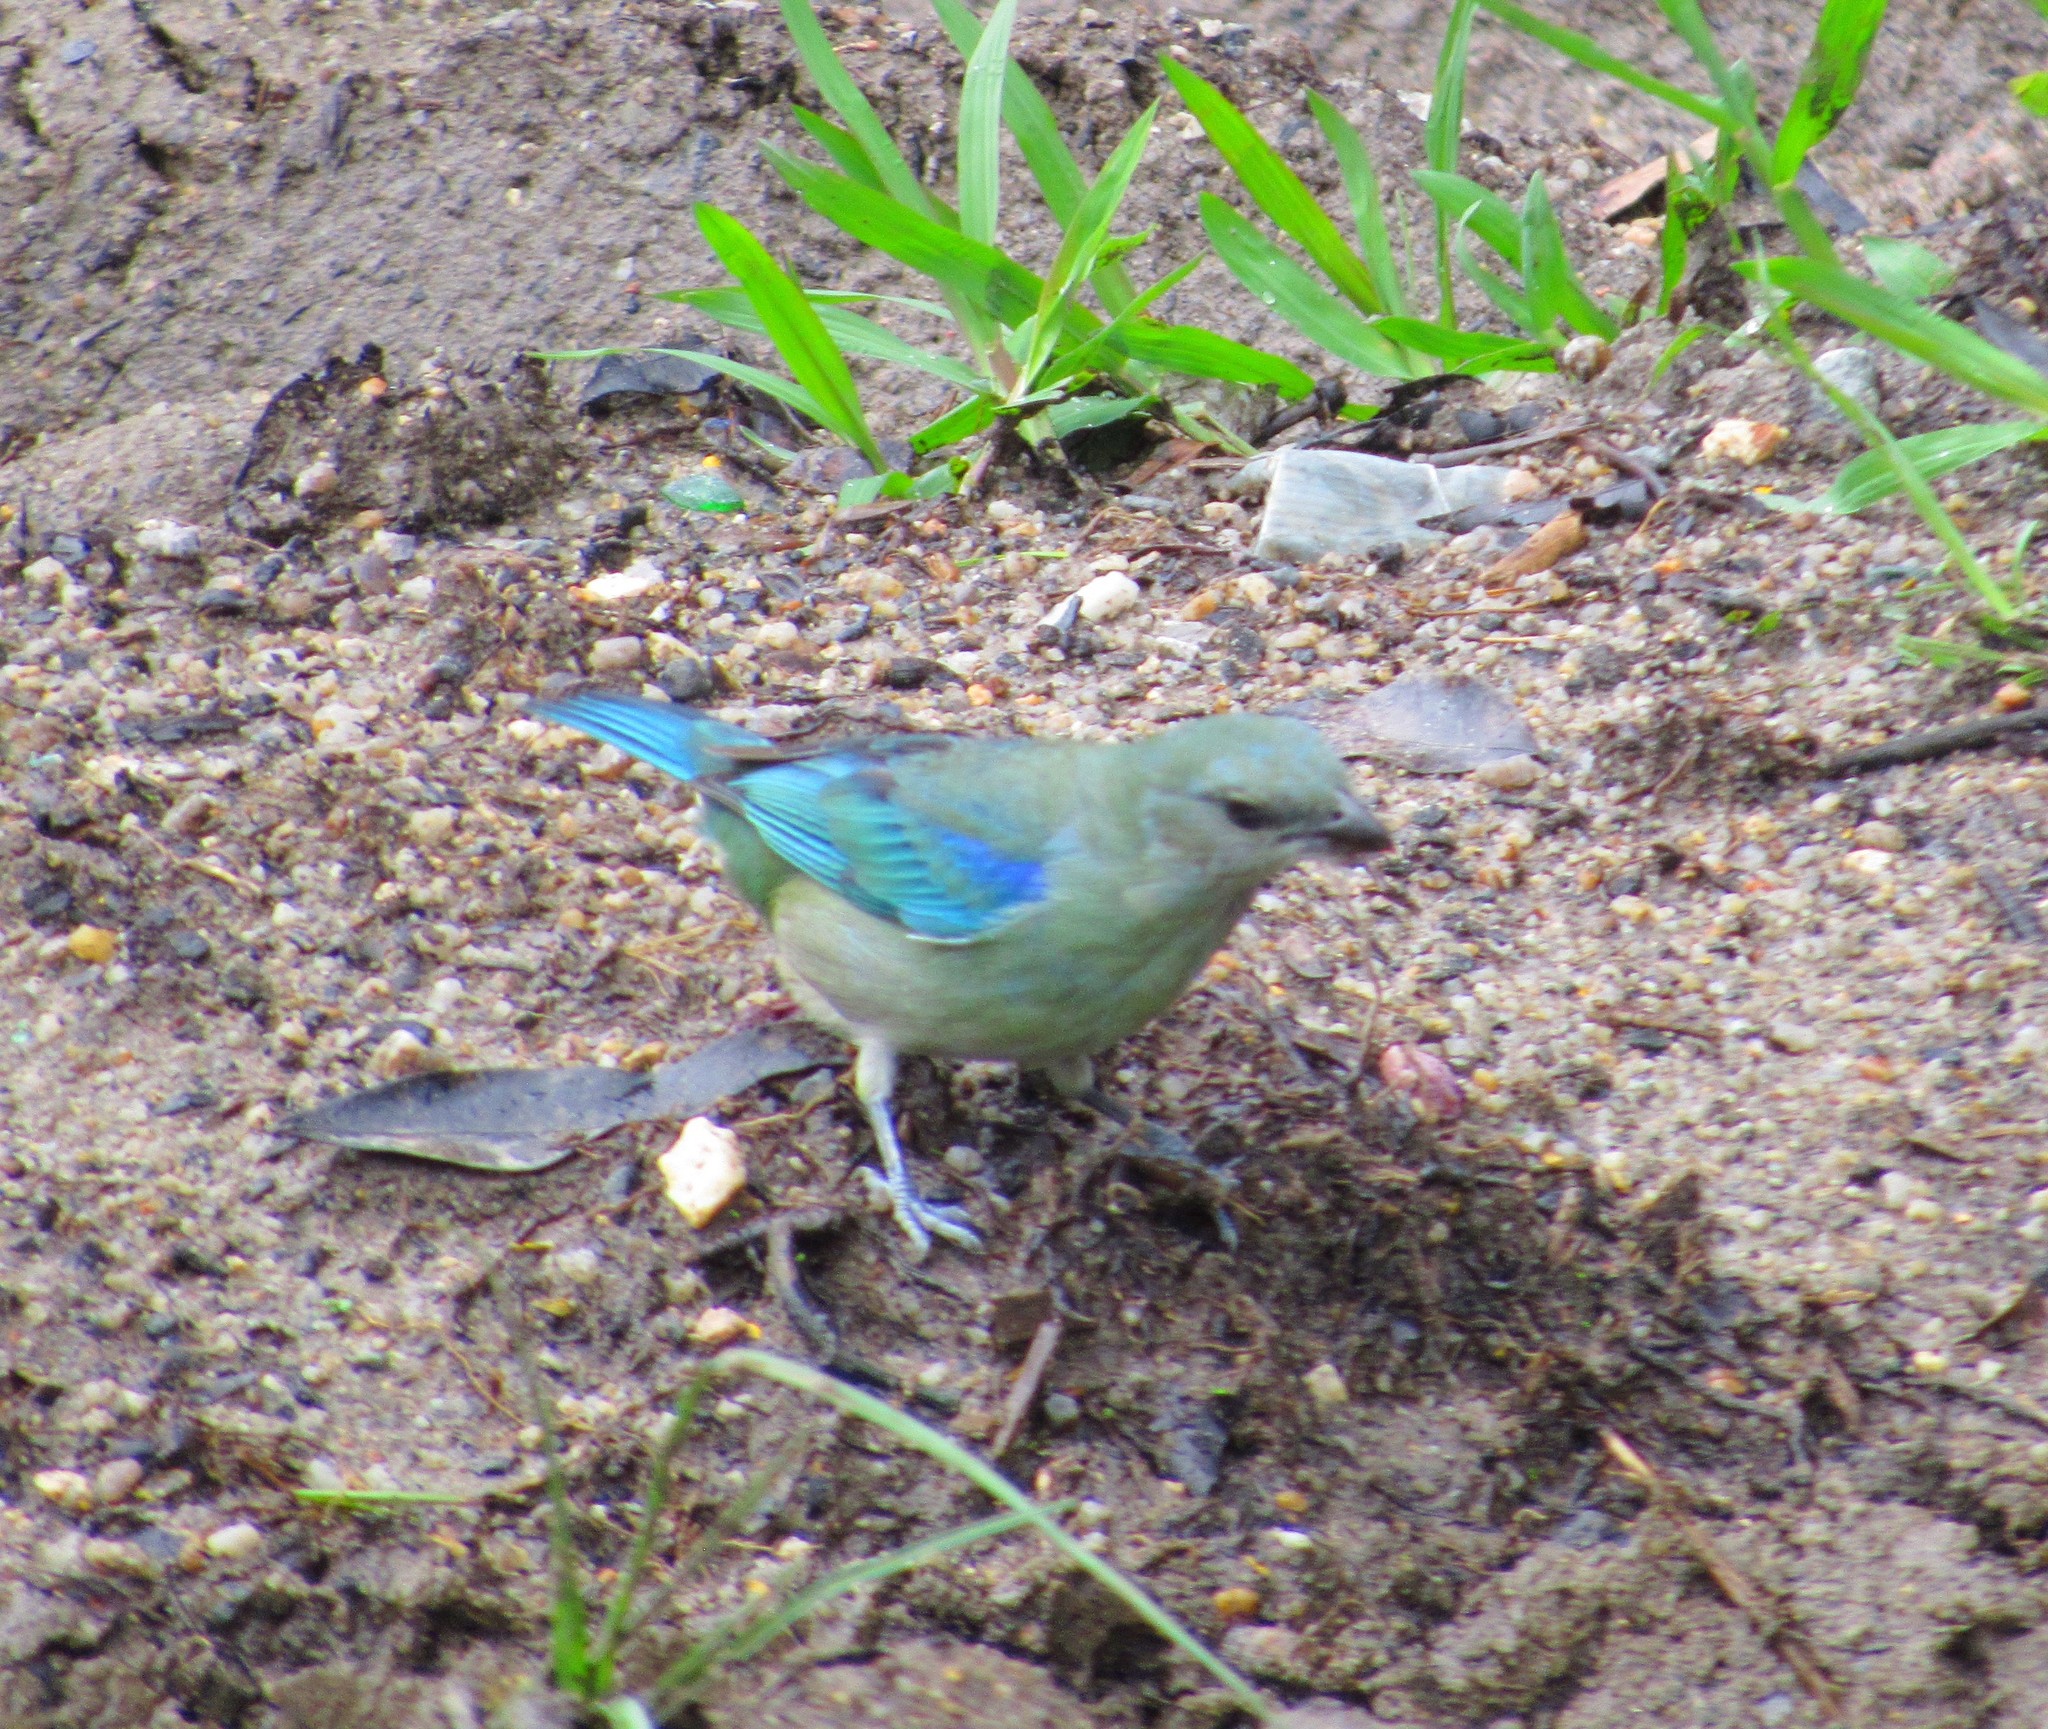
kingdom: Animalia
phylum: Chordata
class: Aves
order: Passeriformes
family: Thraupidae
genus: Thraupis
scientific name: Thraupis cyanoptera
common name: Azure-shouldered tanager
